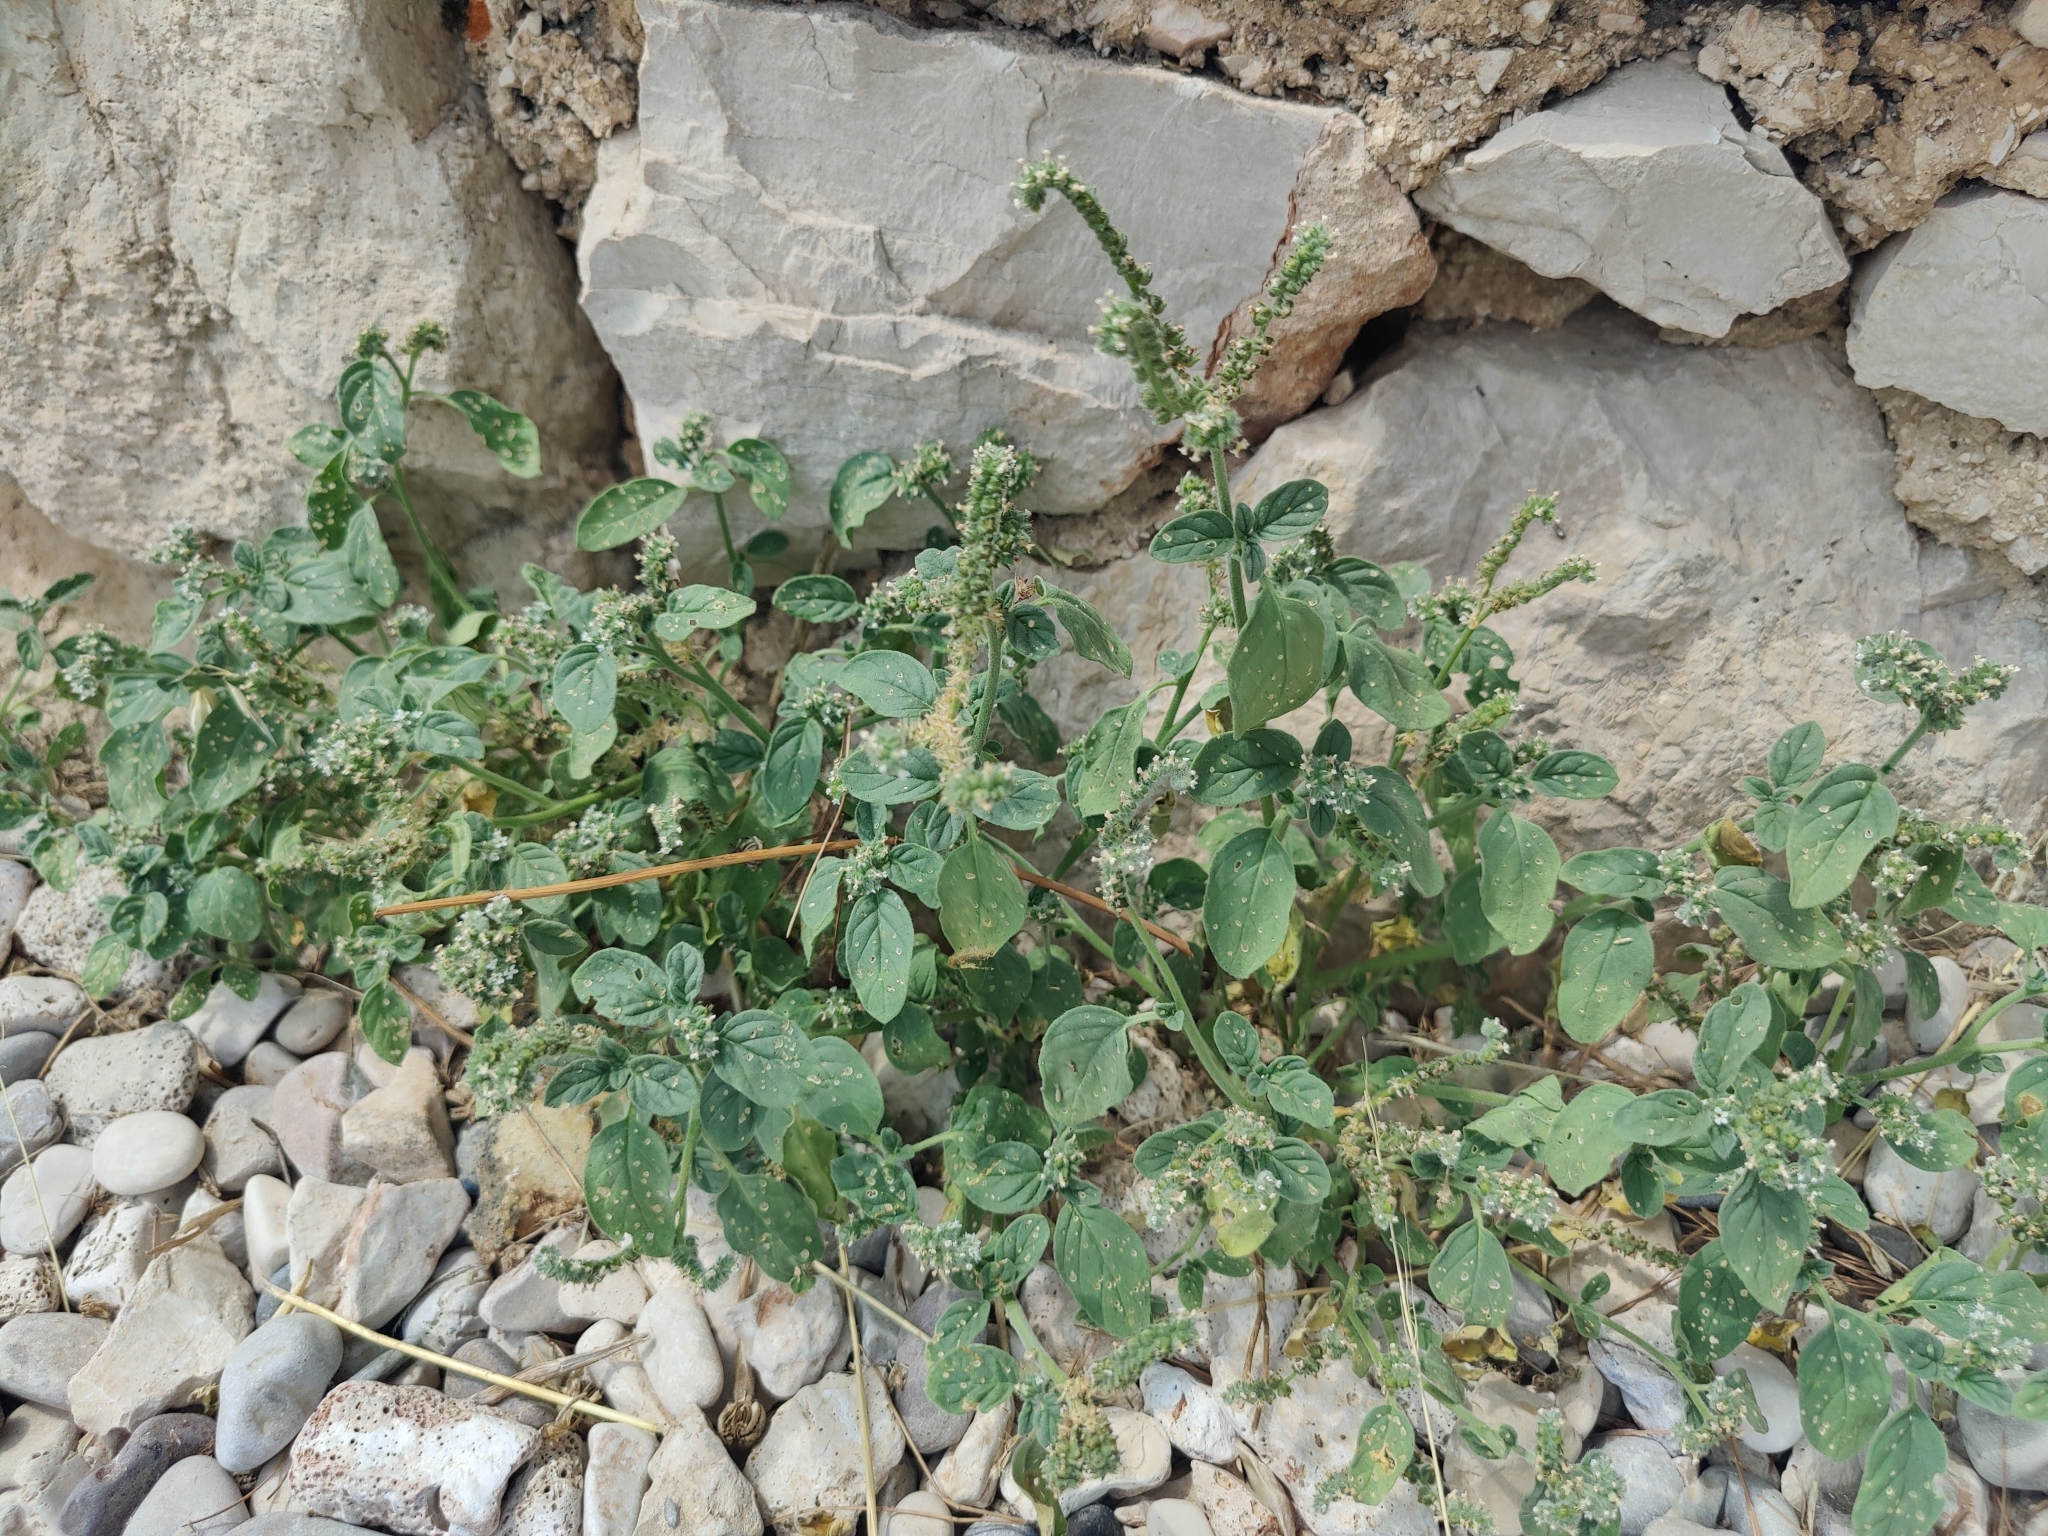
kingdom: Plantae
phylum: Tracheophyta
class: Magnoliopsida
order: Boraginales
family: Heliotropiaceae
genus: Heliotropium
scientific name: Heliotropium europaeum
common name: European heliotrope
